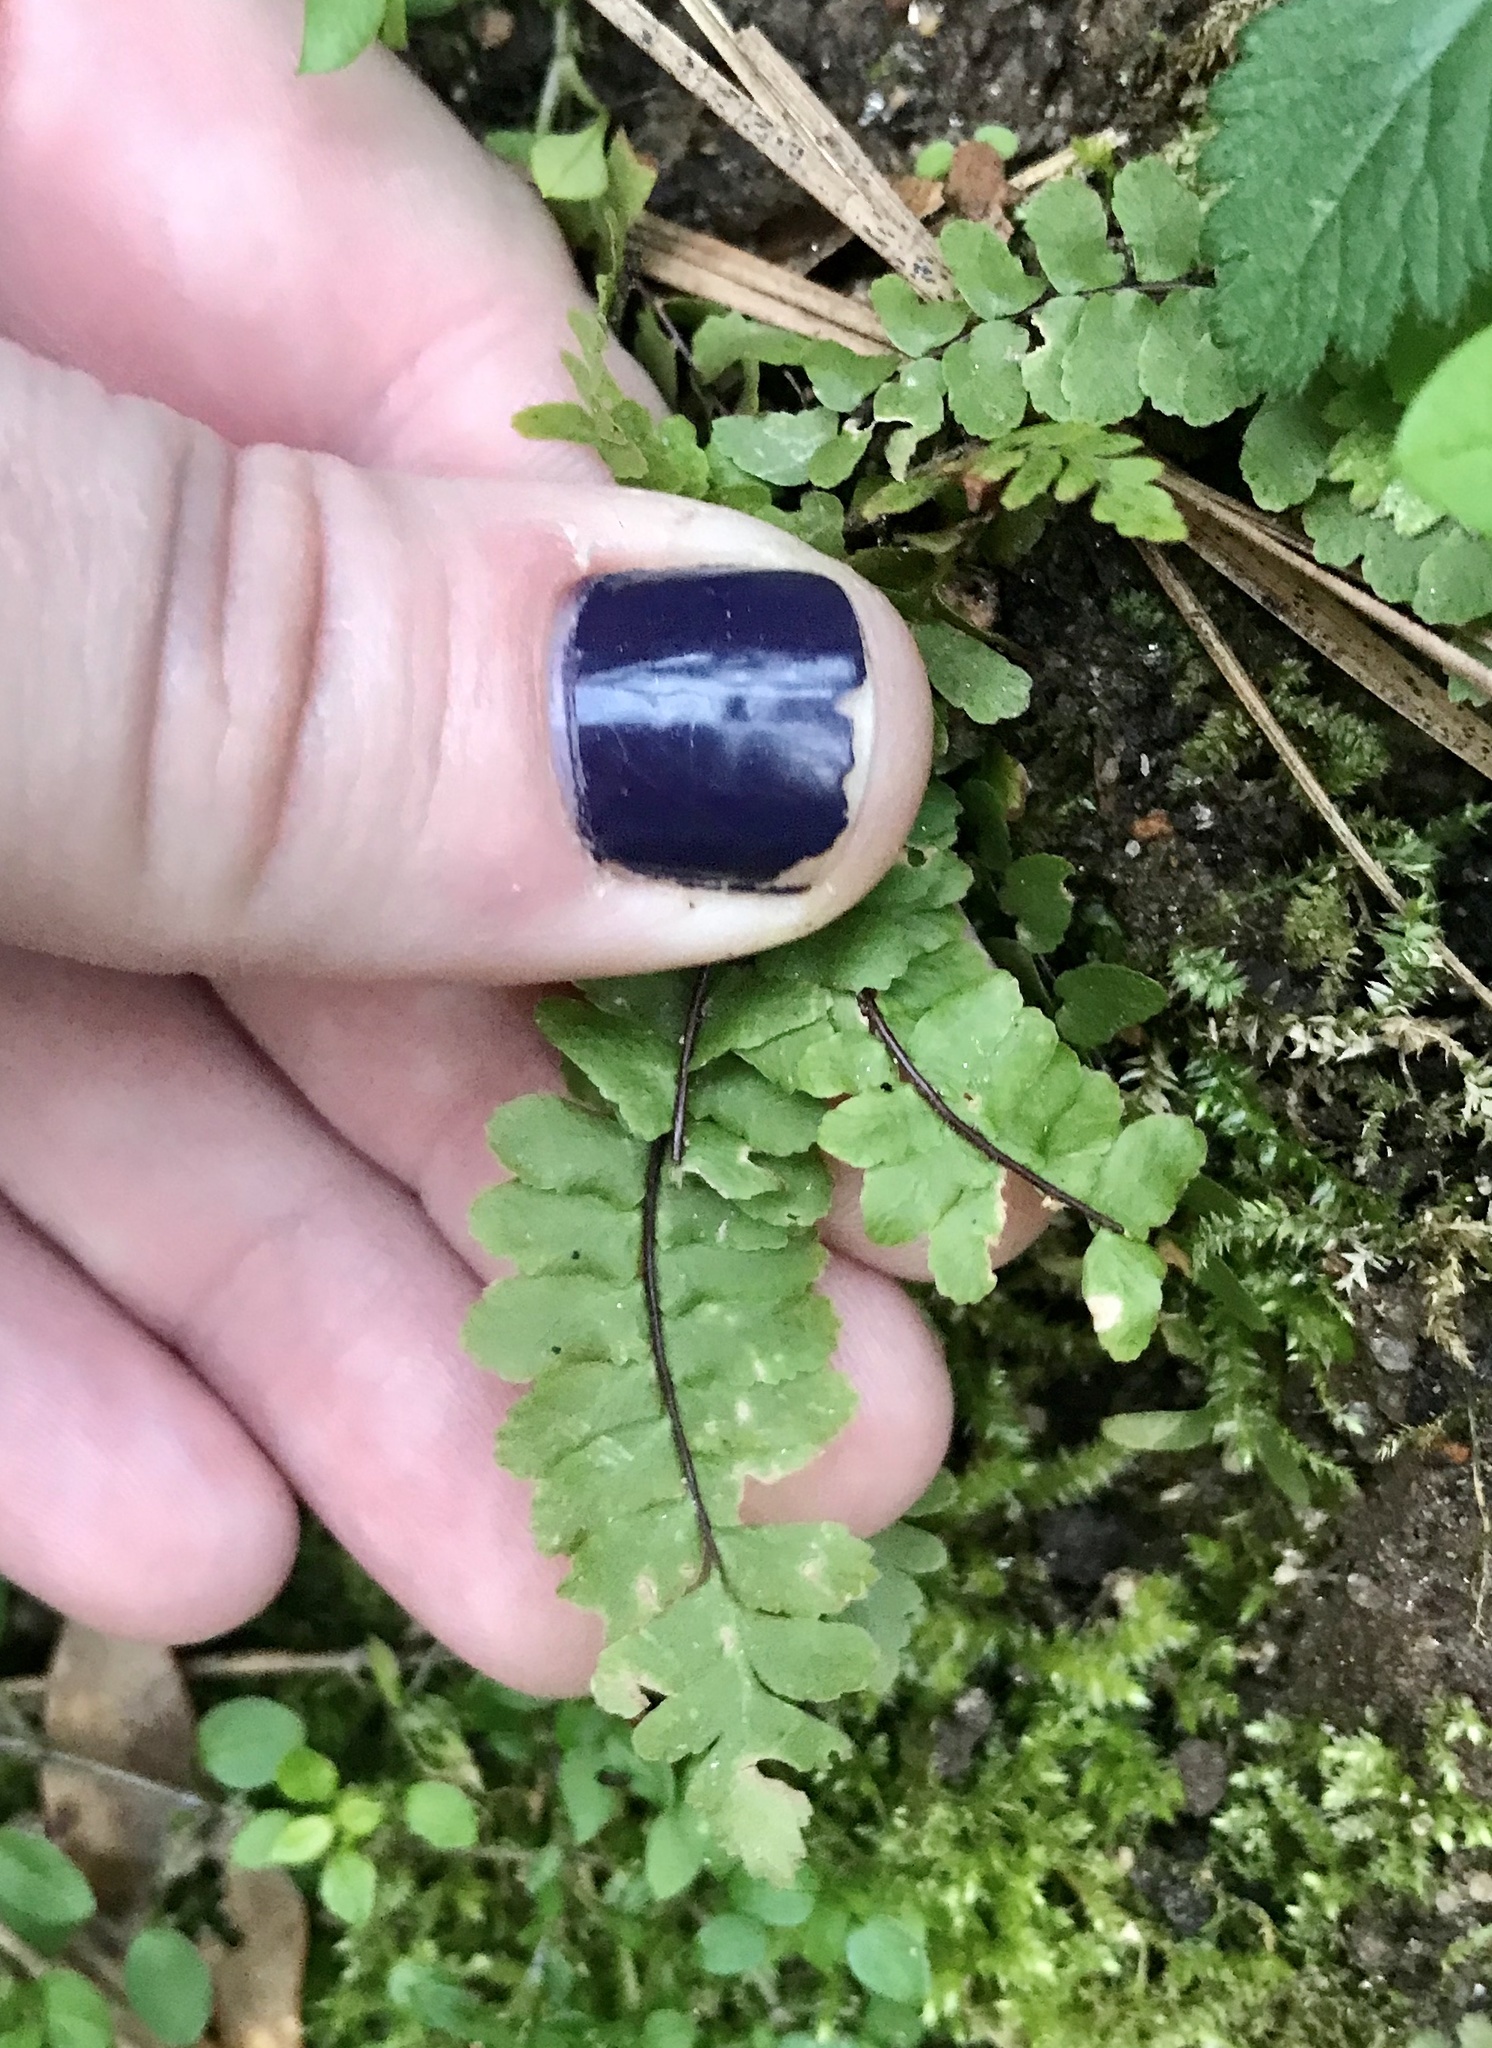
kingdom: Plantae
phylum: Tracheophyta
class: Polypodiopsida
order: Polypodiales
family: Aspleniaceae
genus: Asplenium
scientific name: Asplenium platyneuron
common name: Ebony spleenwort
